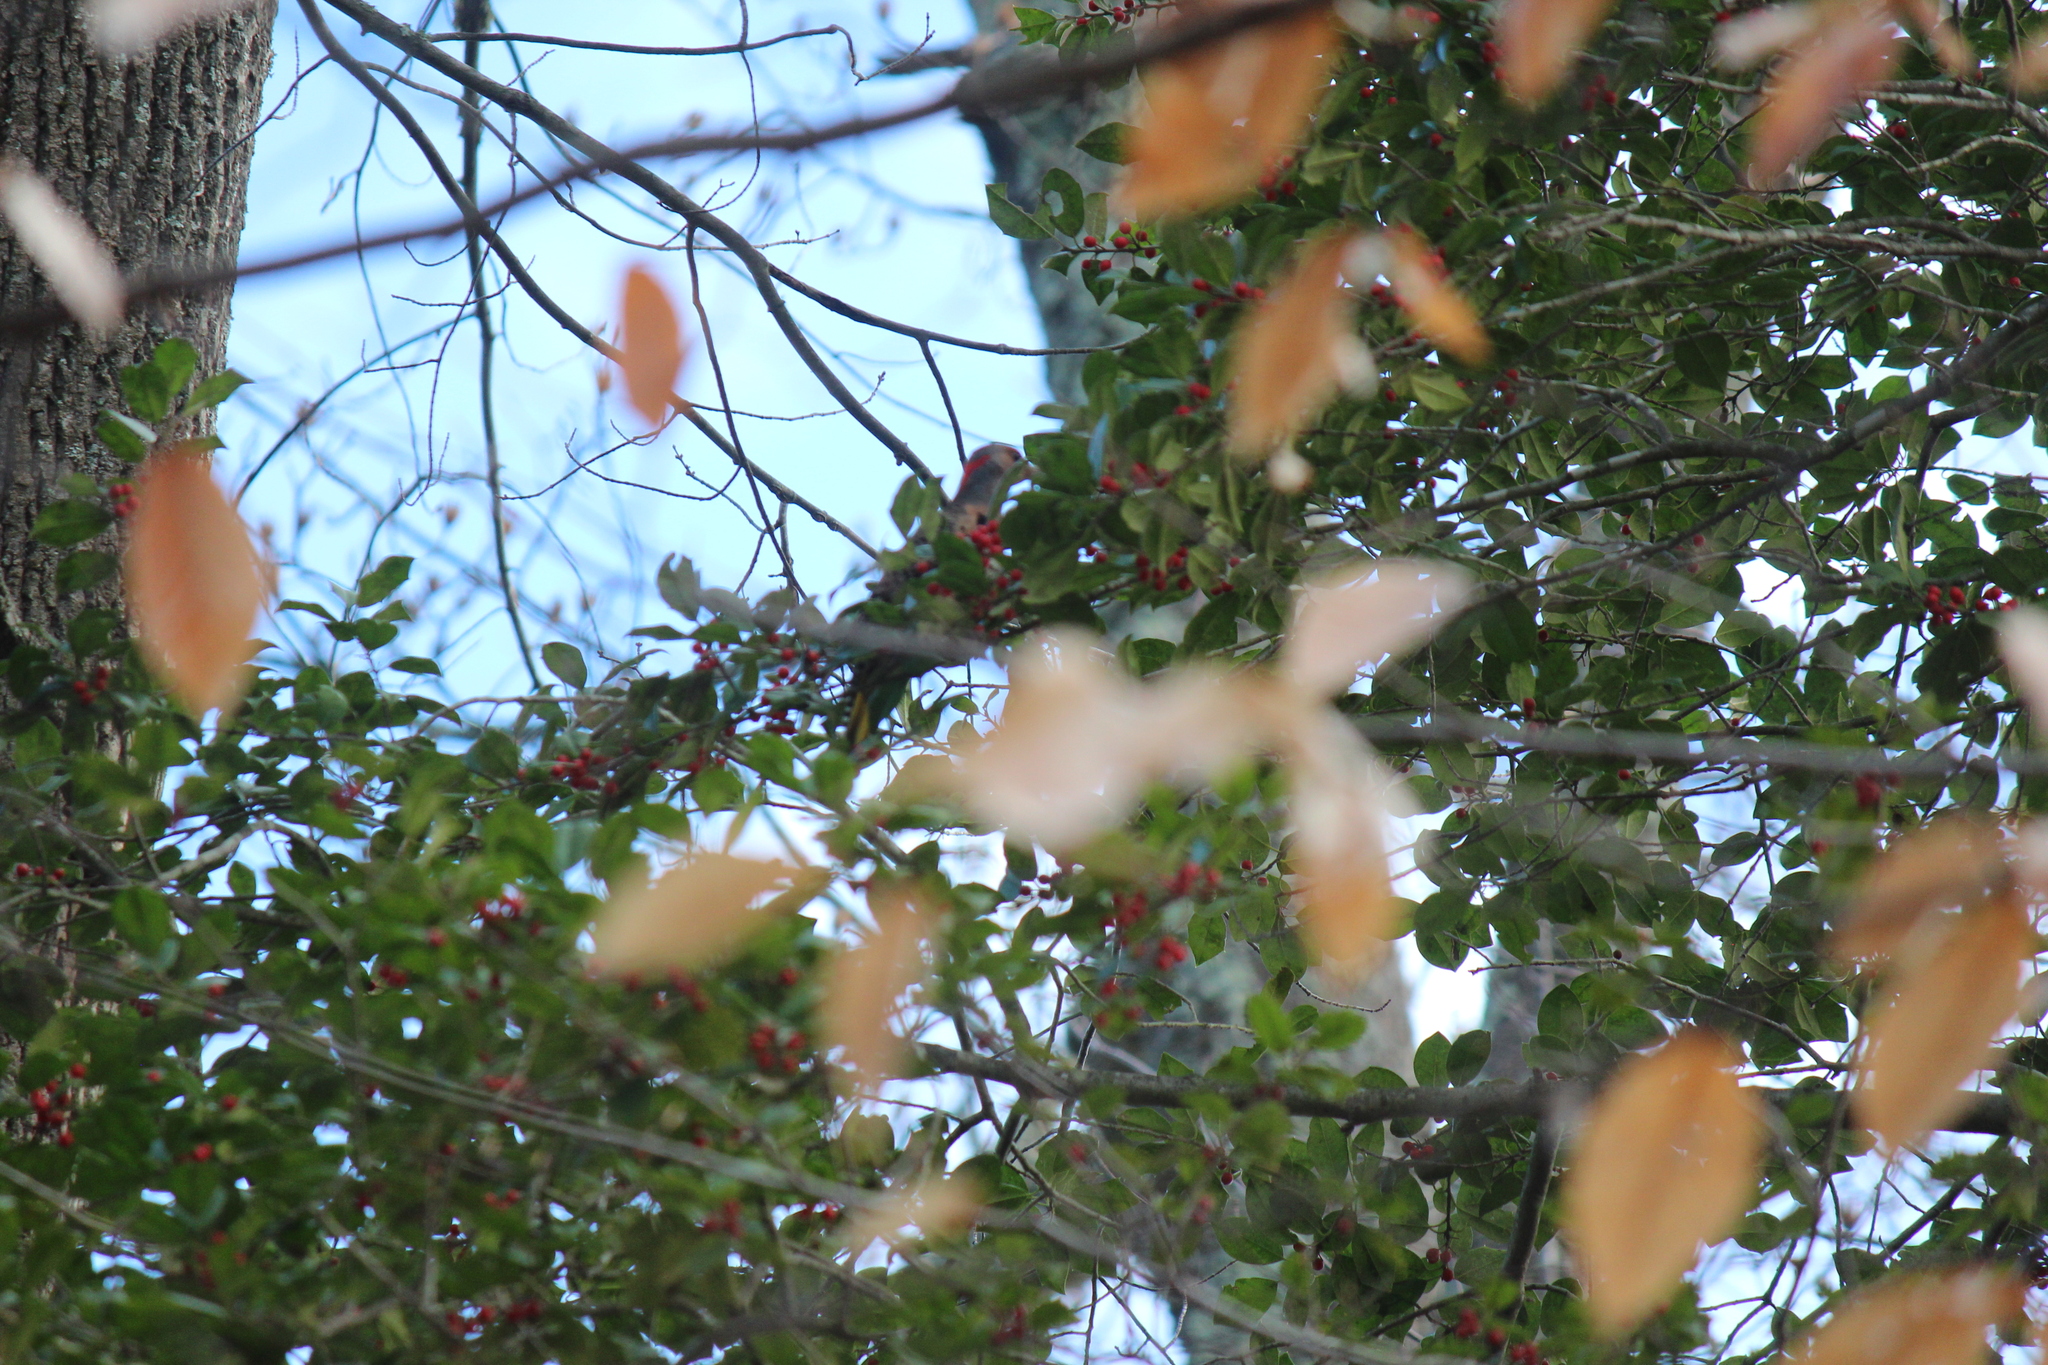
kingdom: Animalia
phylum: Chordata
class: Aves
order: Piciformes
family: Picidae
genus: Colaptes
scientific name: Colaptes auratus
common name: Northern flicker
